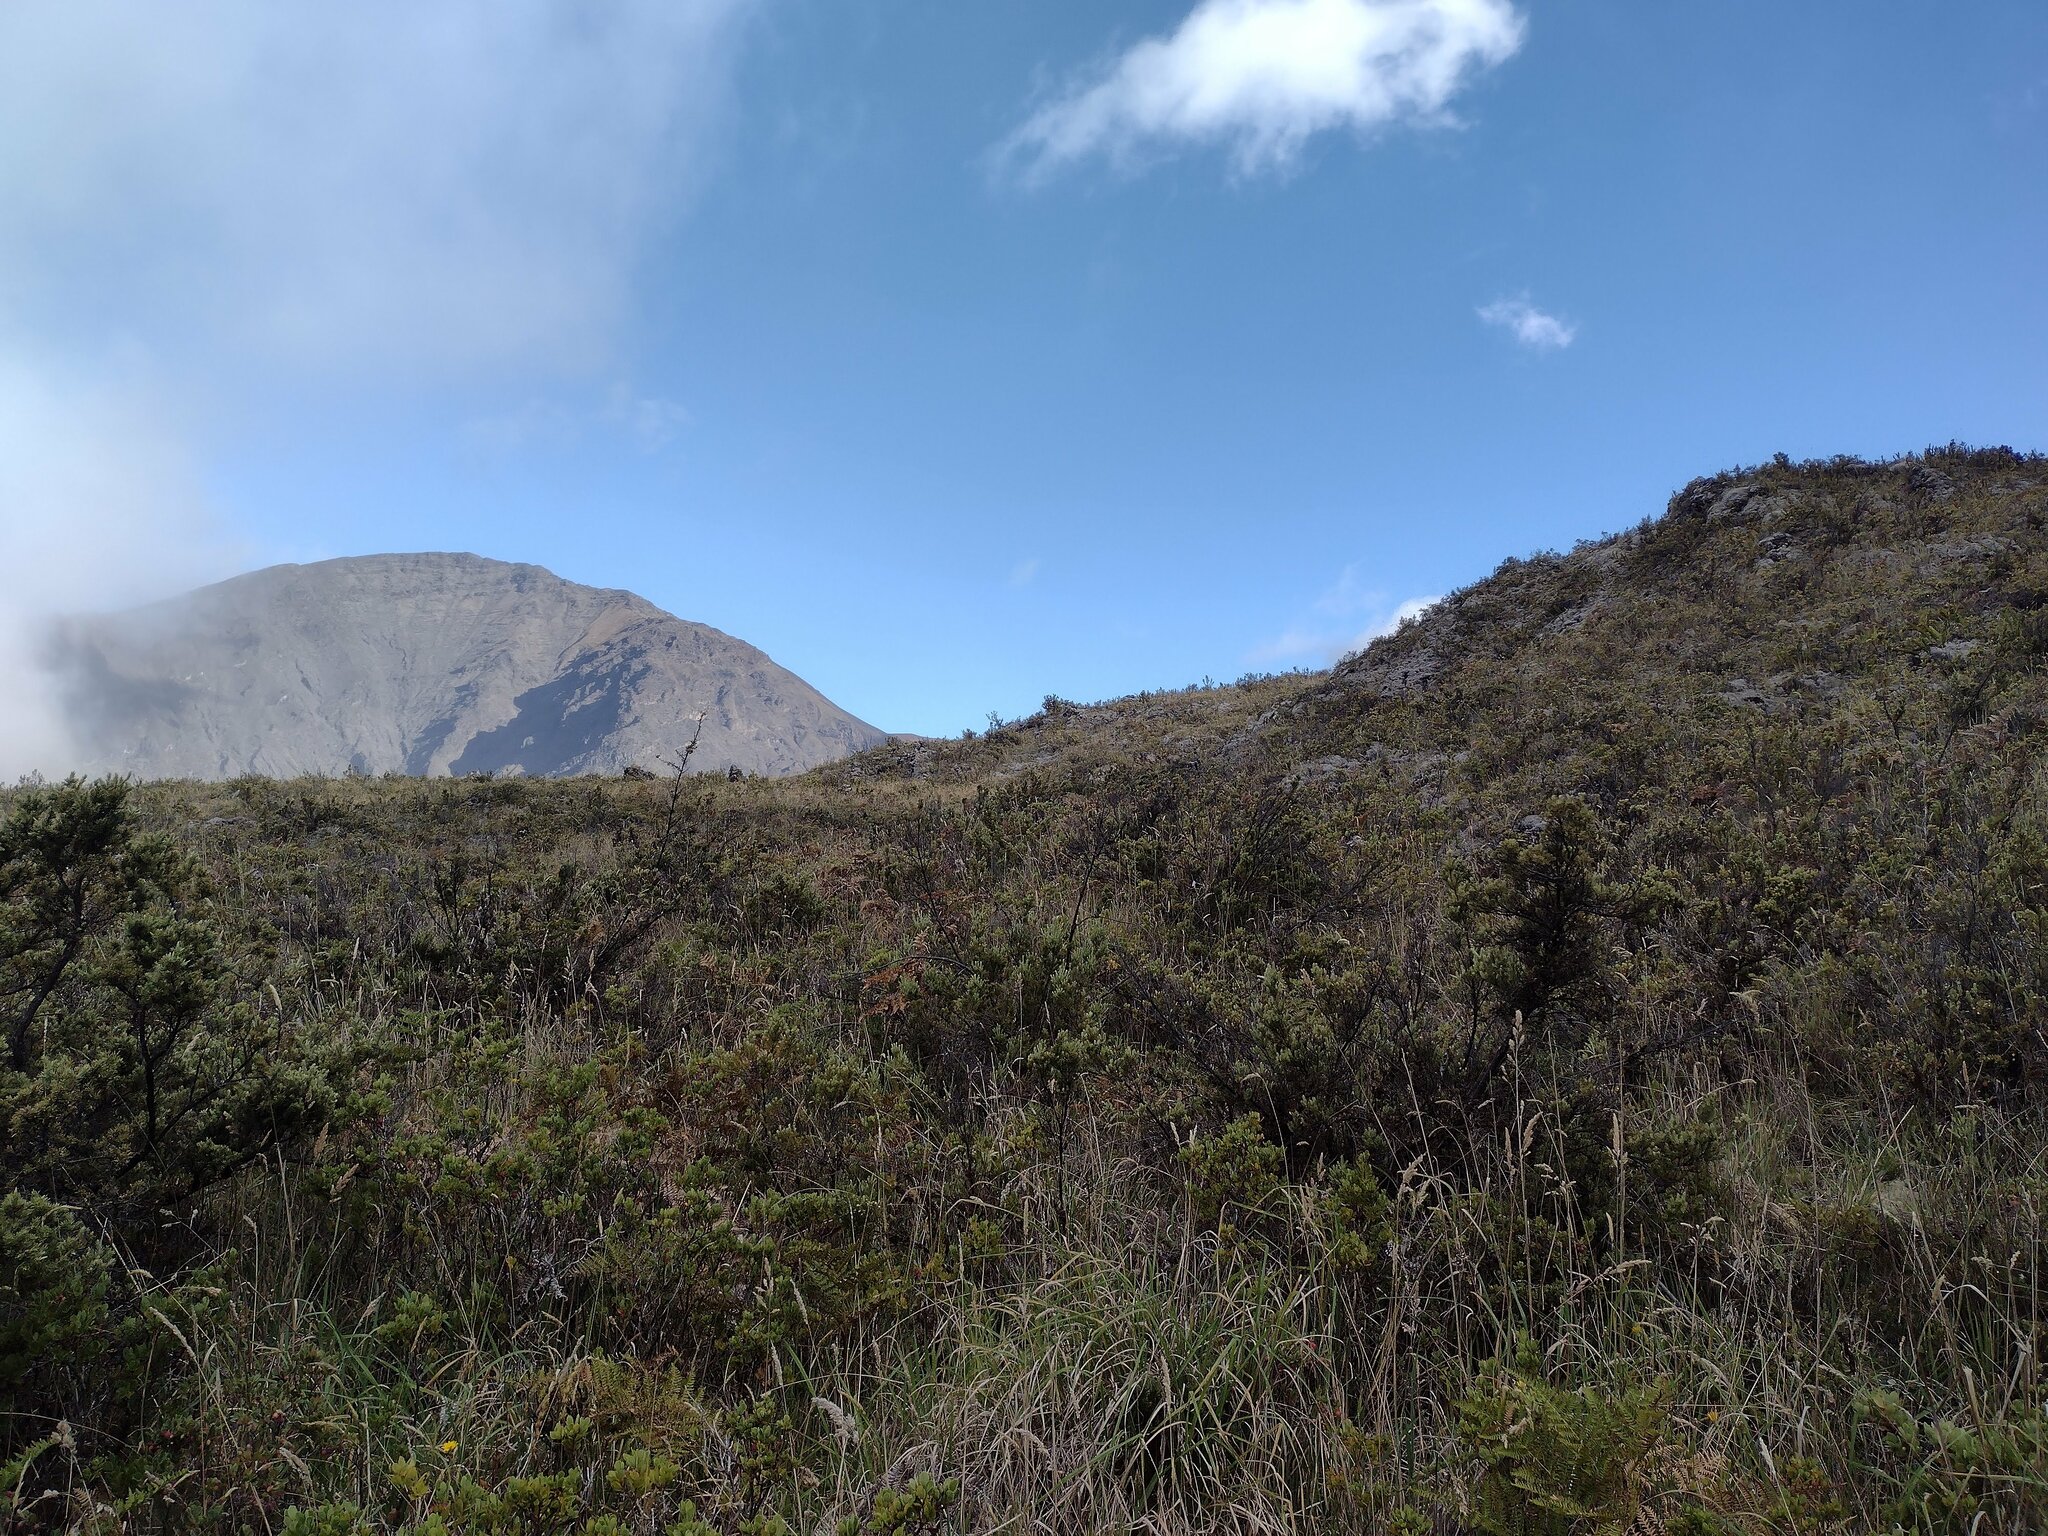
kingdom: Plantae
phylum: Tracheophyta
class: Magnoliopsida
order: Ericales
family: Ericaceae
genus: Leptecophylla
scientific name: Leptecophylla tameiameiae
